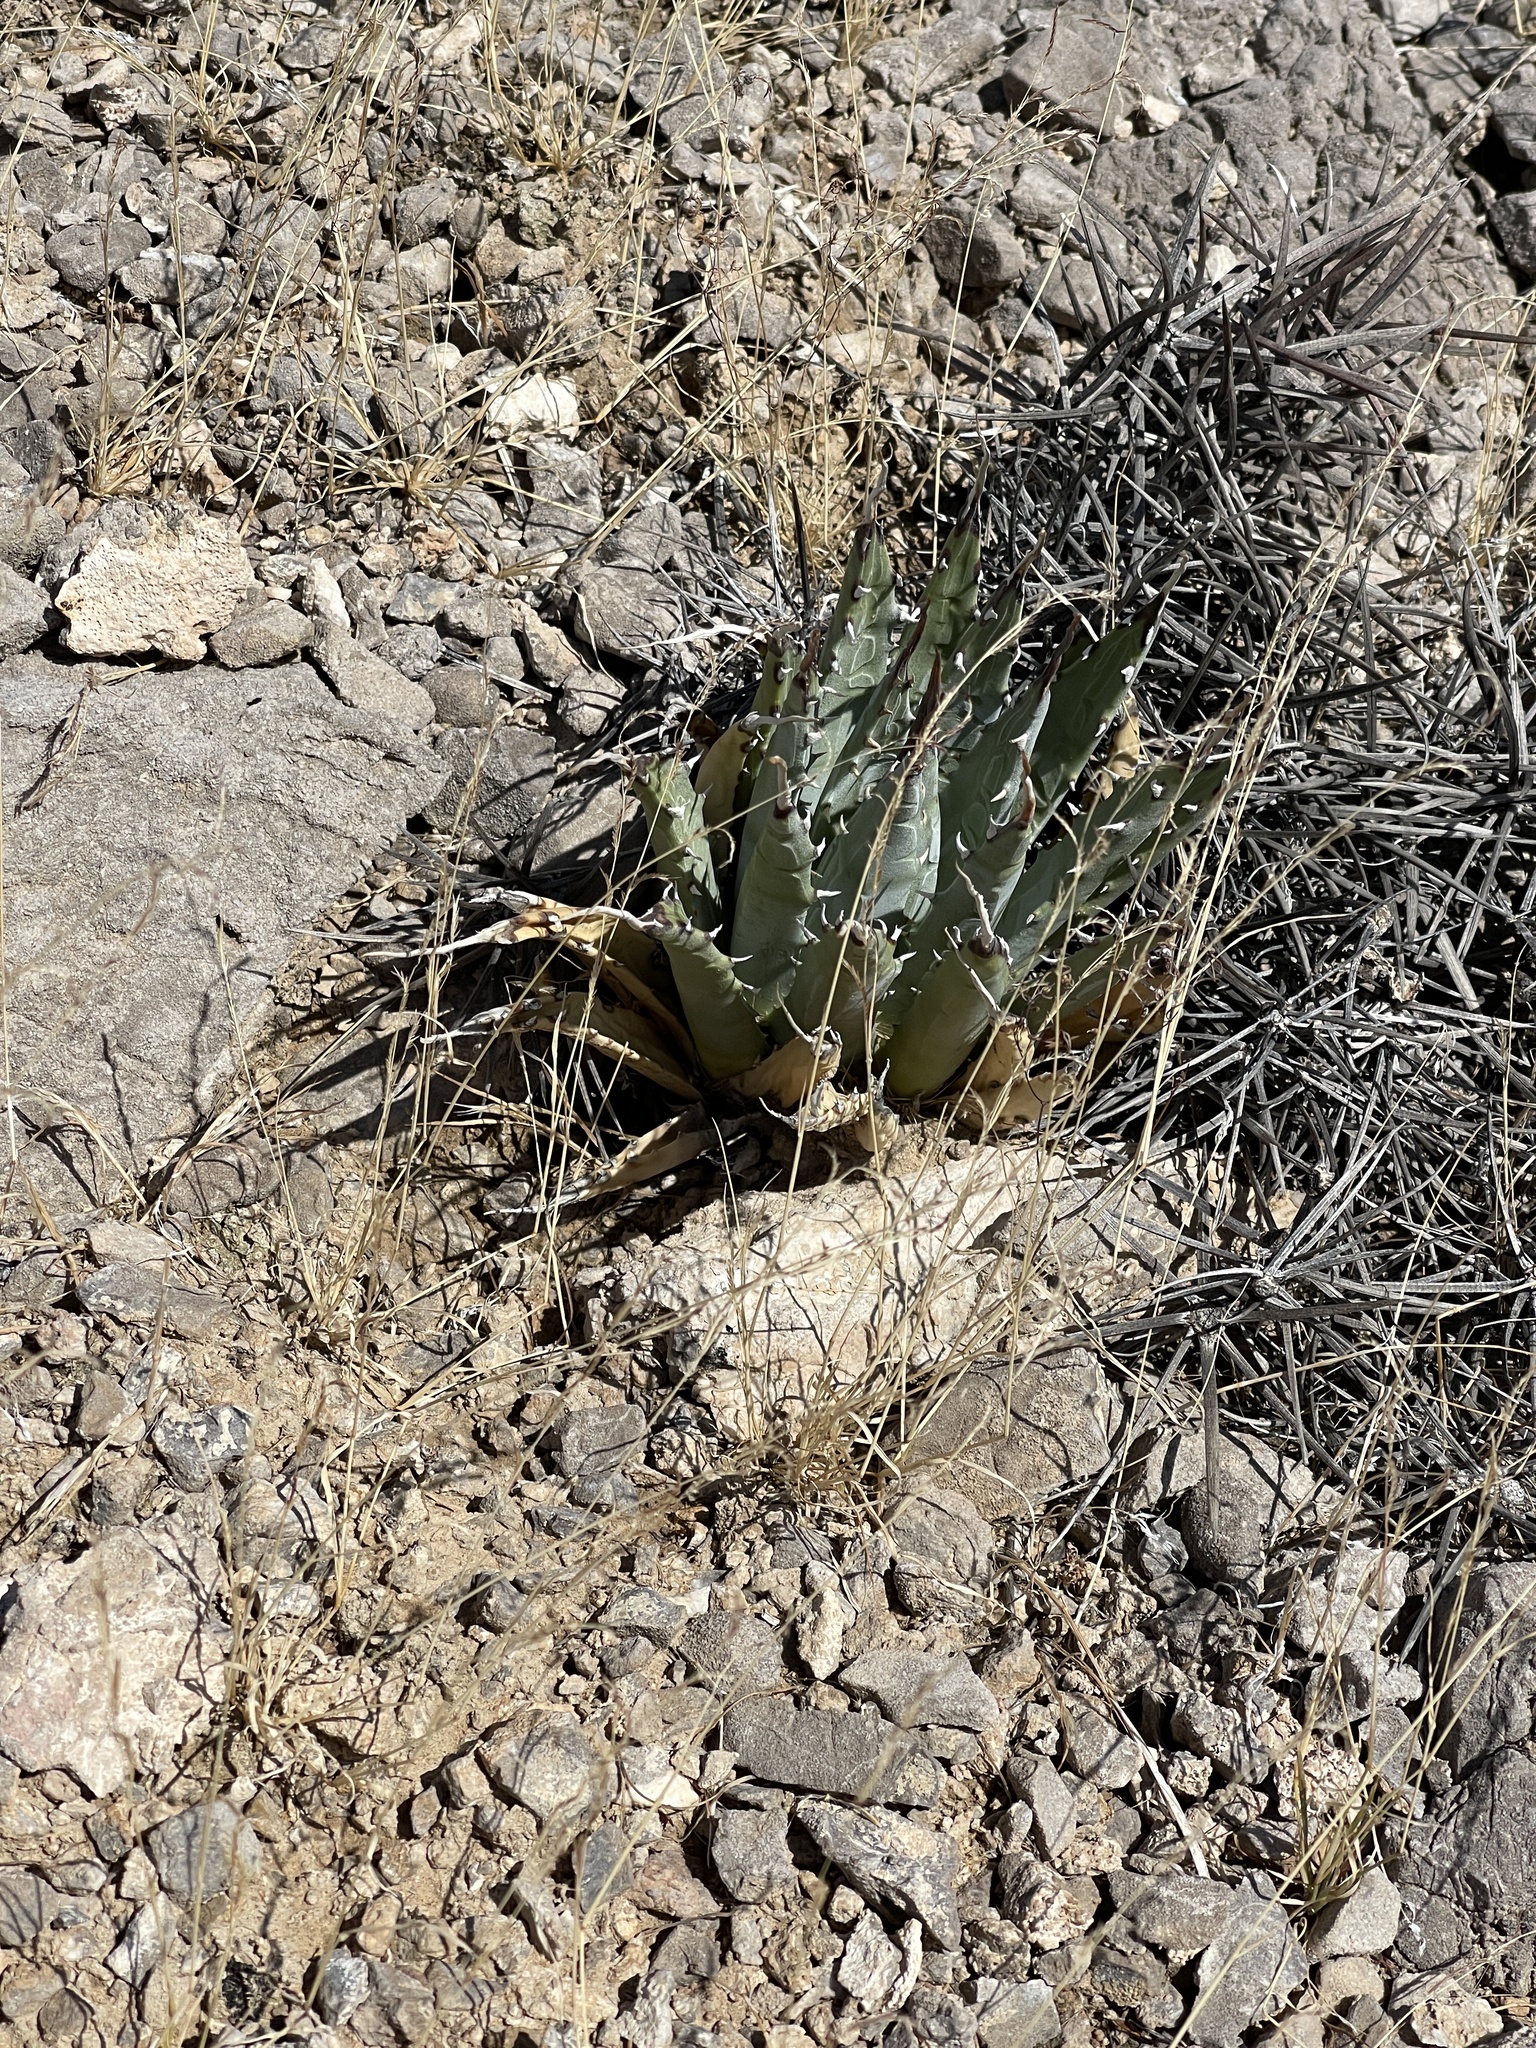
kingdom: Plantae
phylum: Tracheophyta
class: Liliopsida
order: Asparagales
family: Asparagaceae
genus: Agave
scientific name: Agave utahensis
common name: Utah agave
